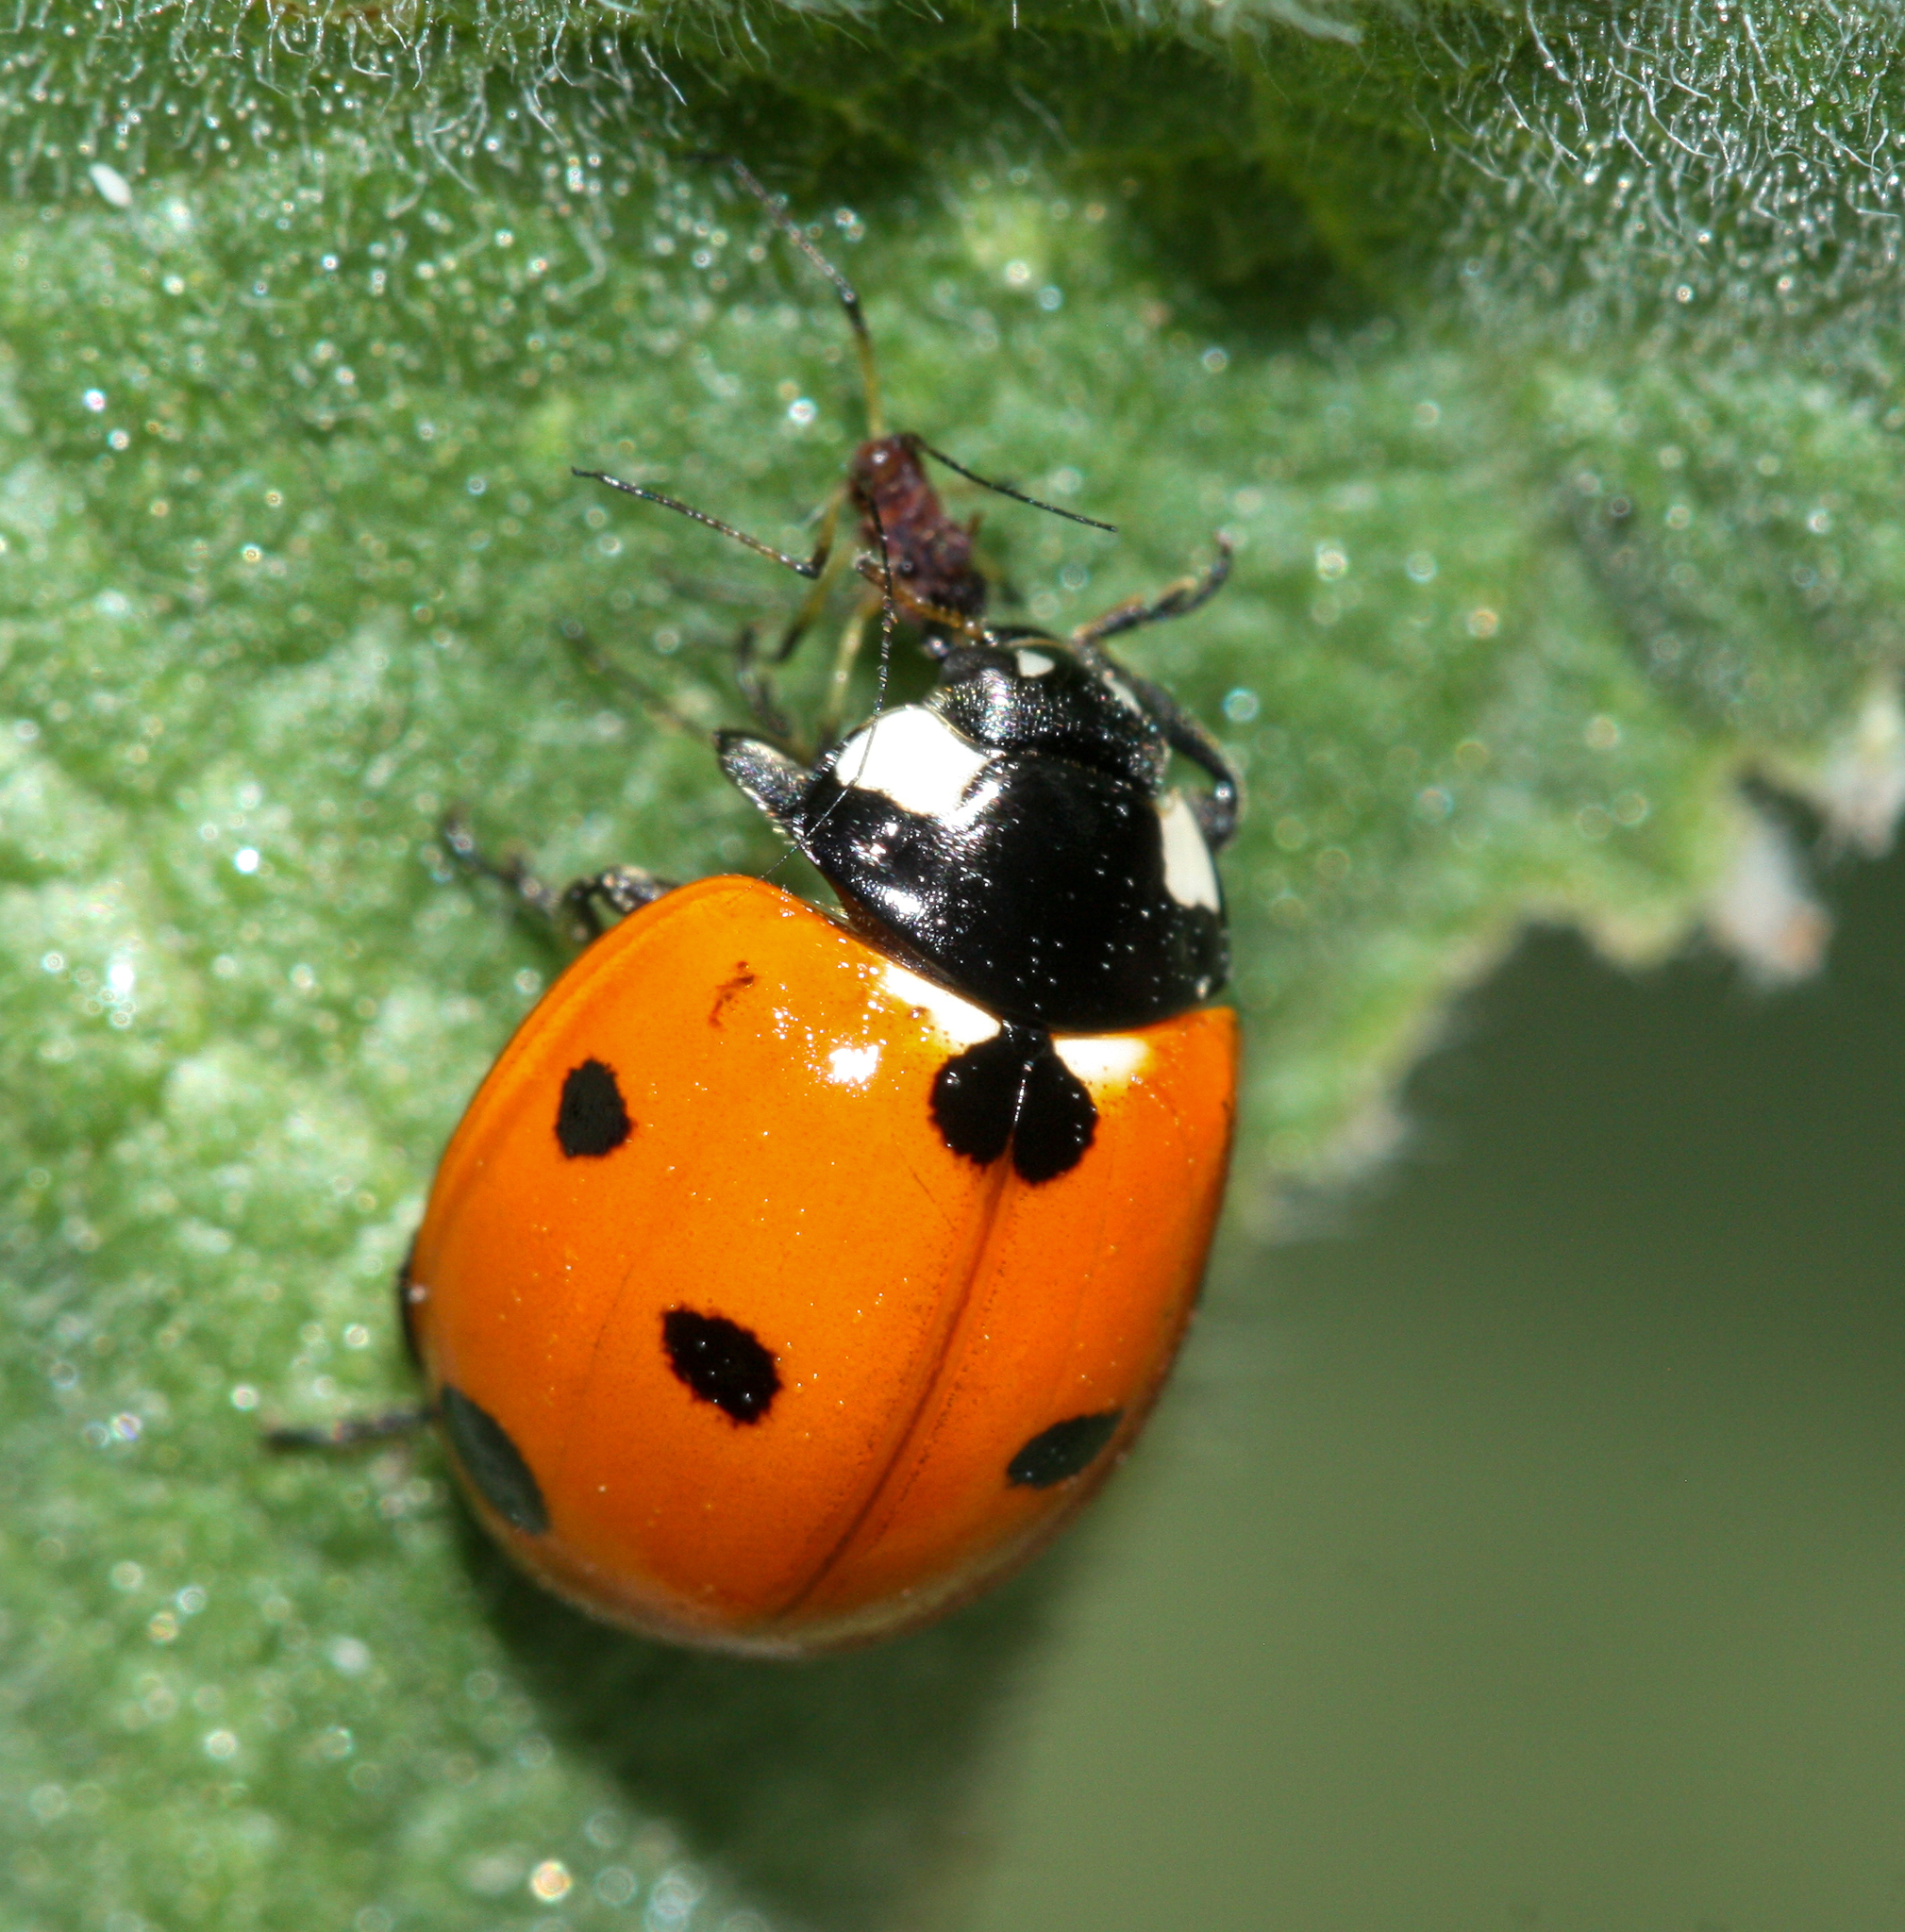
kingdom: Animalia
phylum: Arthropoda
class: Insecta
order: Coleoptera
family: Coccinellidae
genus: Coccinella
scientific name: Coccinella septempunctata
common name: Sevenspotted lady beetle
